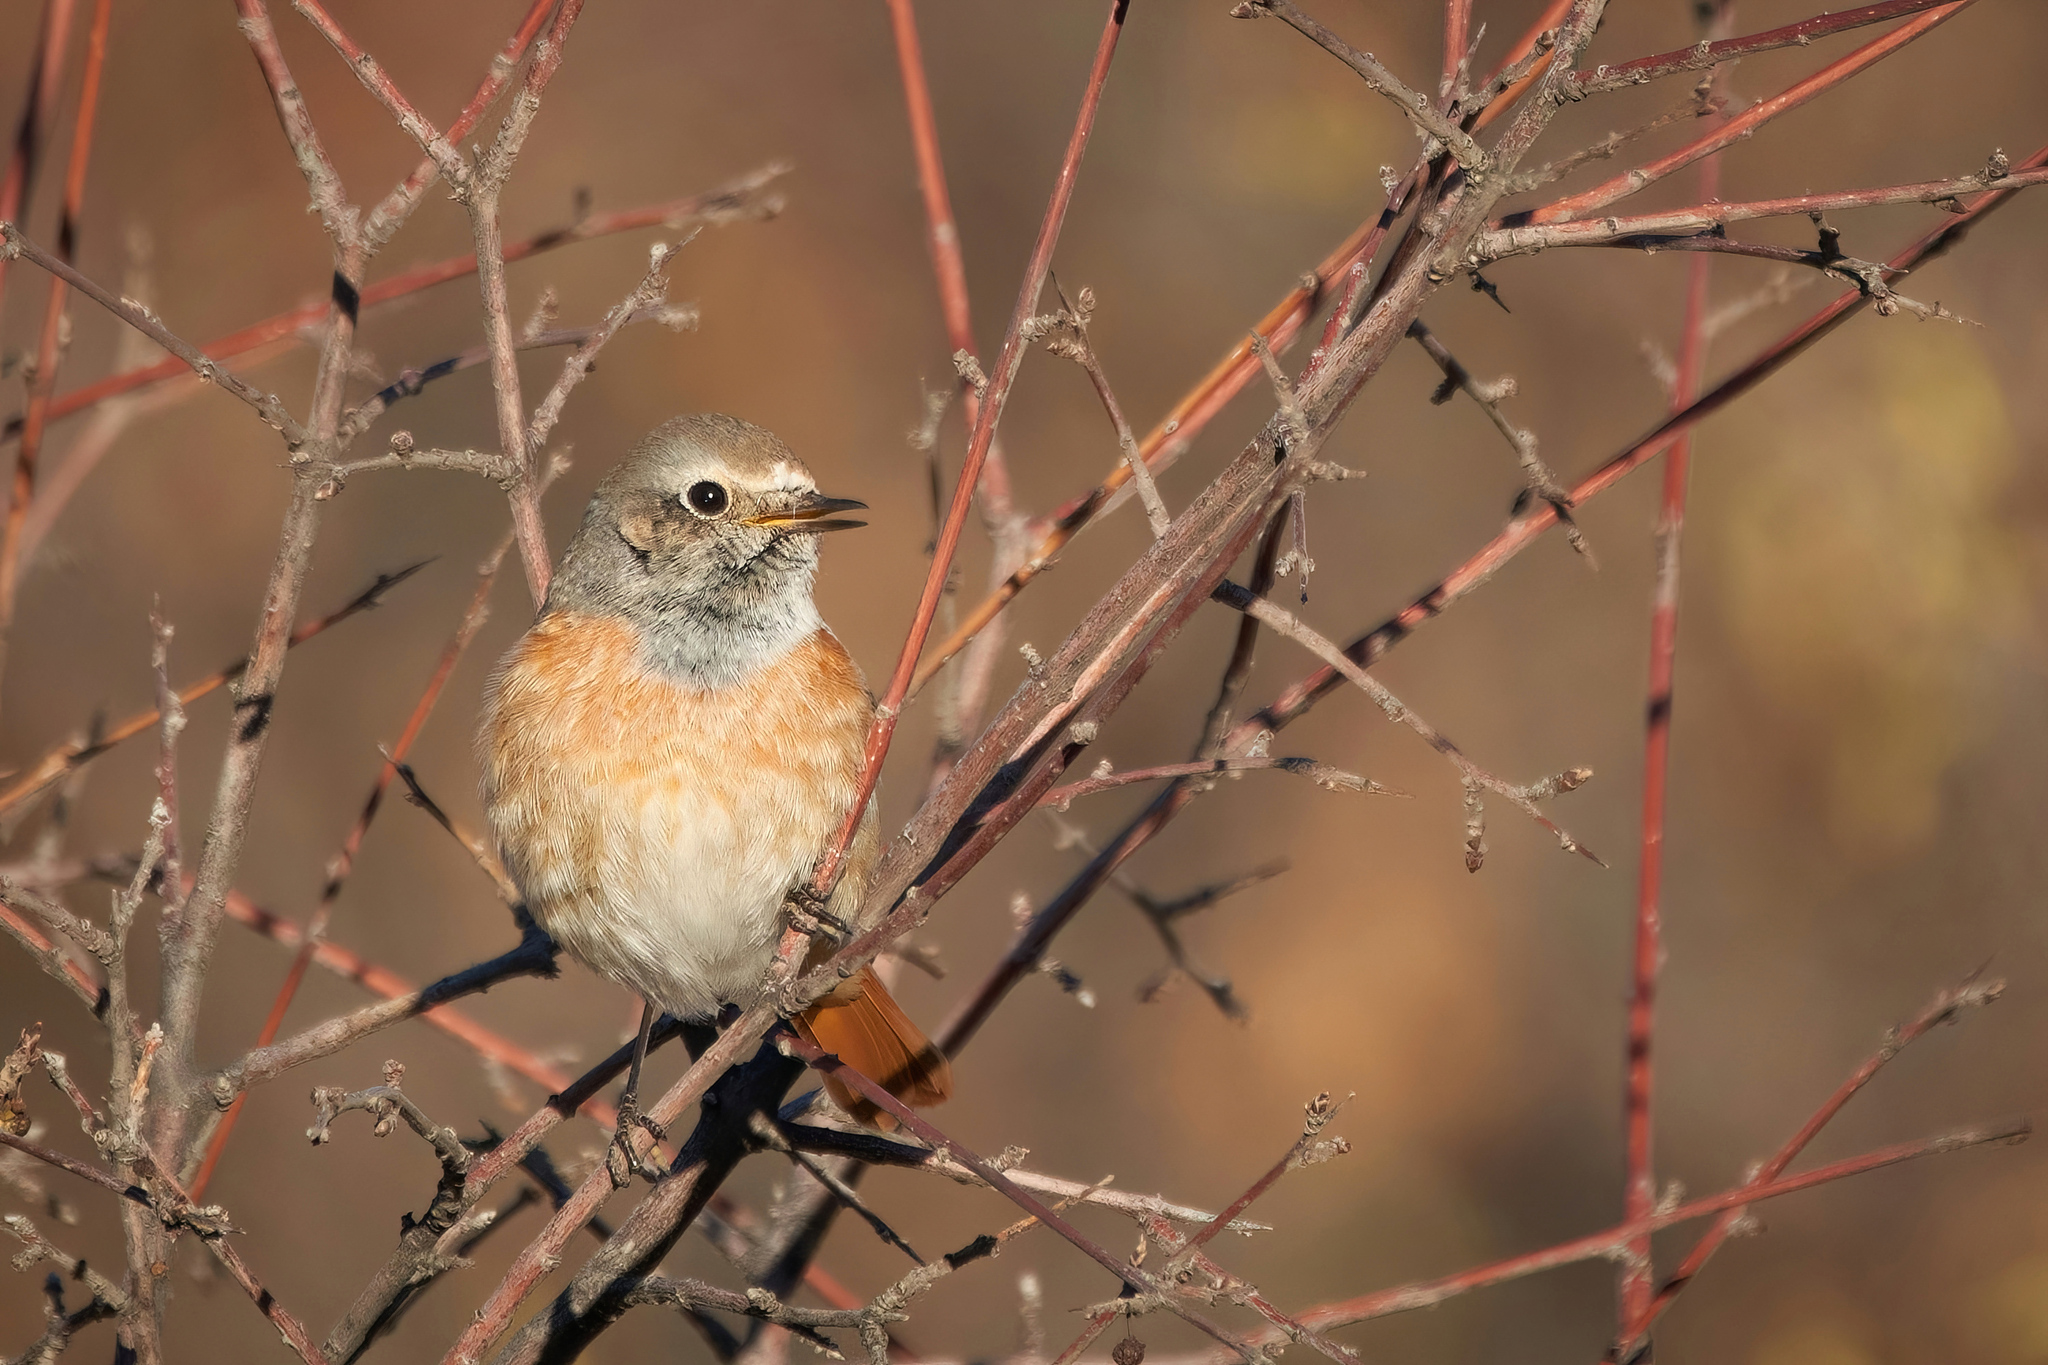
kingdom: Animalia
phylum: Chordata
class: Aves
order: Passeriformes
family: Muscicapidae
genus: Phoenicurus
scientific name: Phoenicurus phoenicurus
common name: Common redstart
